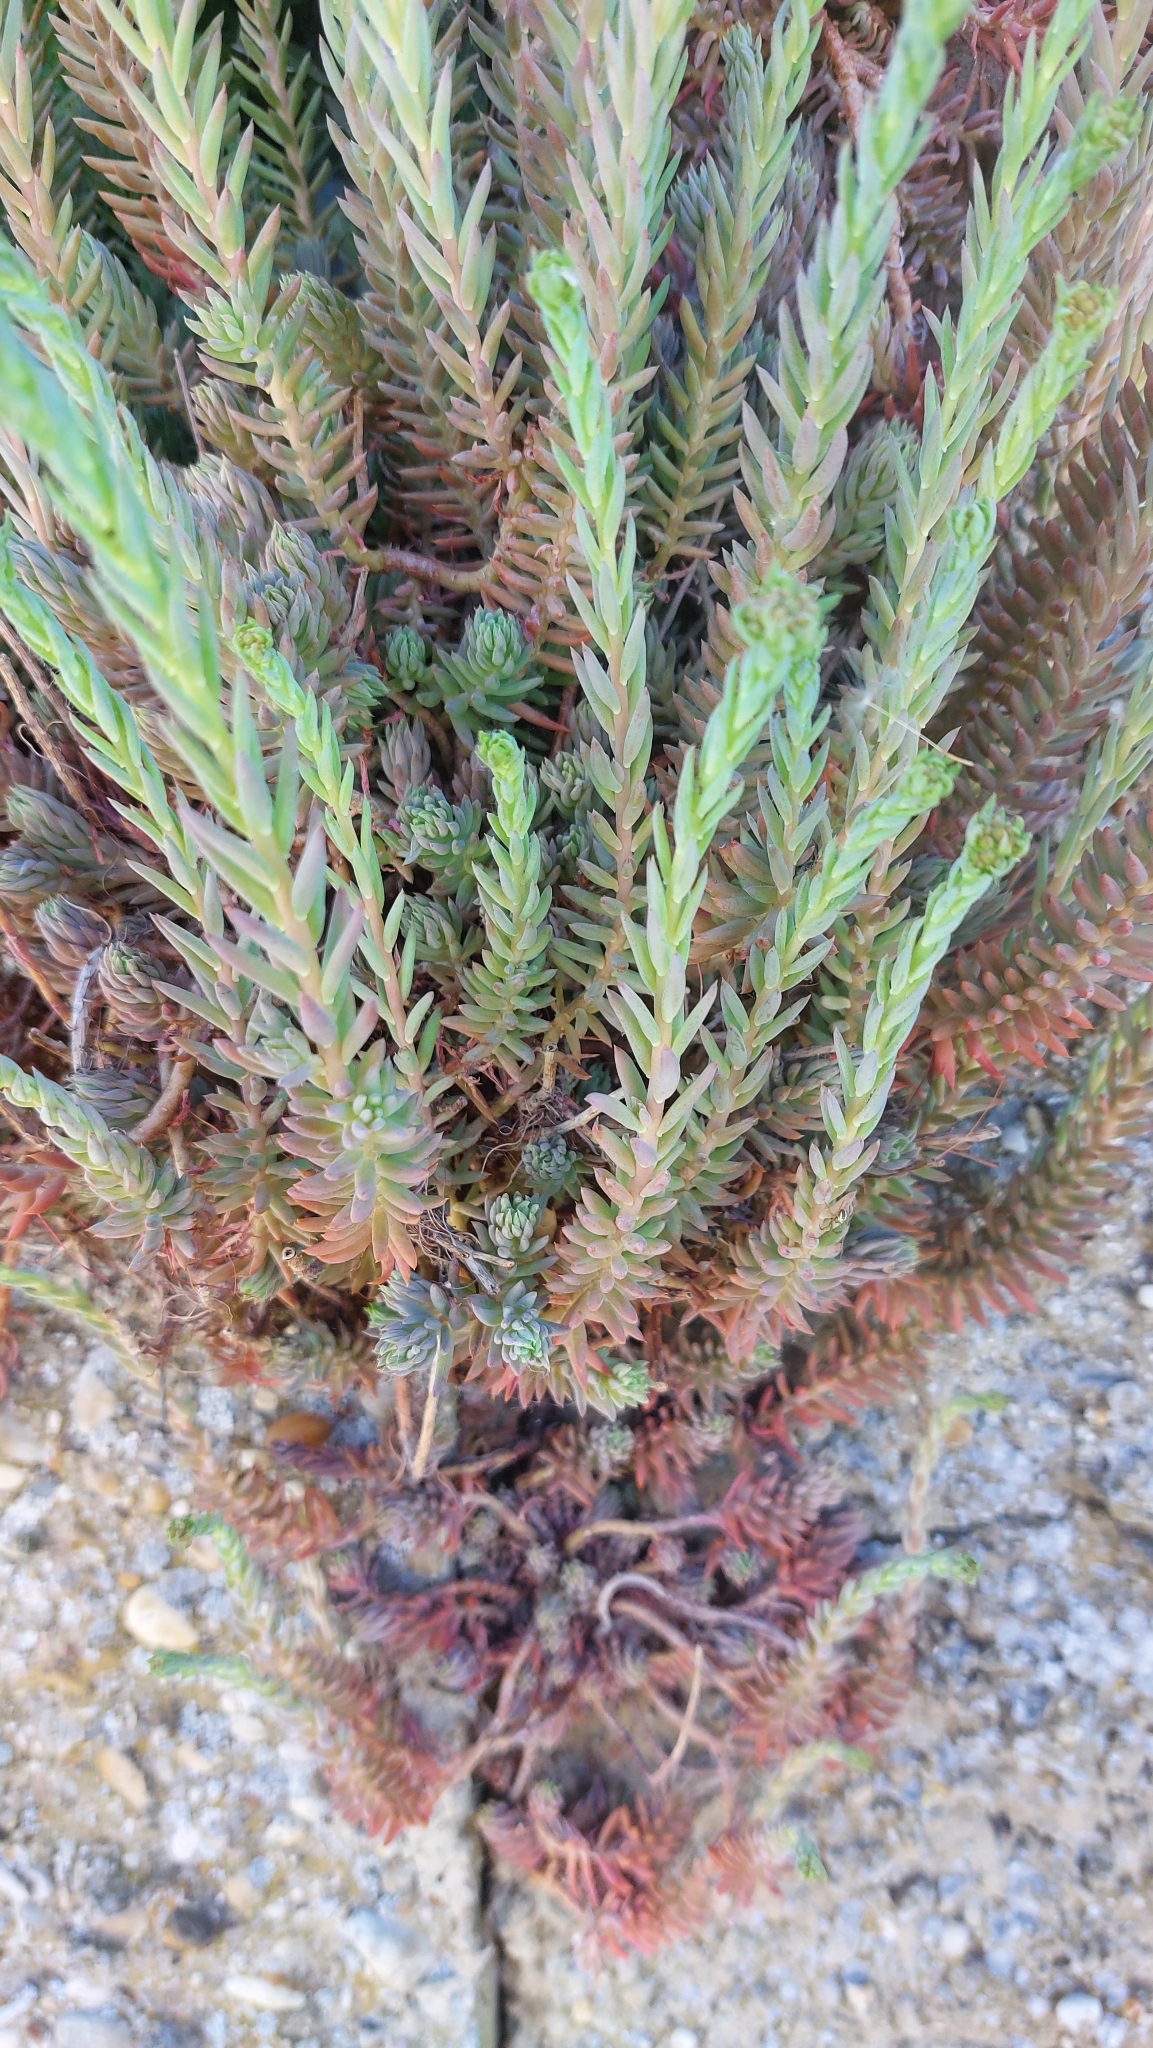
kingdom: Plantae
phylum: Tracheophyta
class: Magnoliopsida
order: Saxifragales
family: Crassulaceae
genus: Petrosedum
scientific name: Petrosedum orientale
